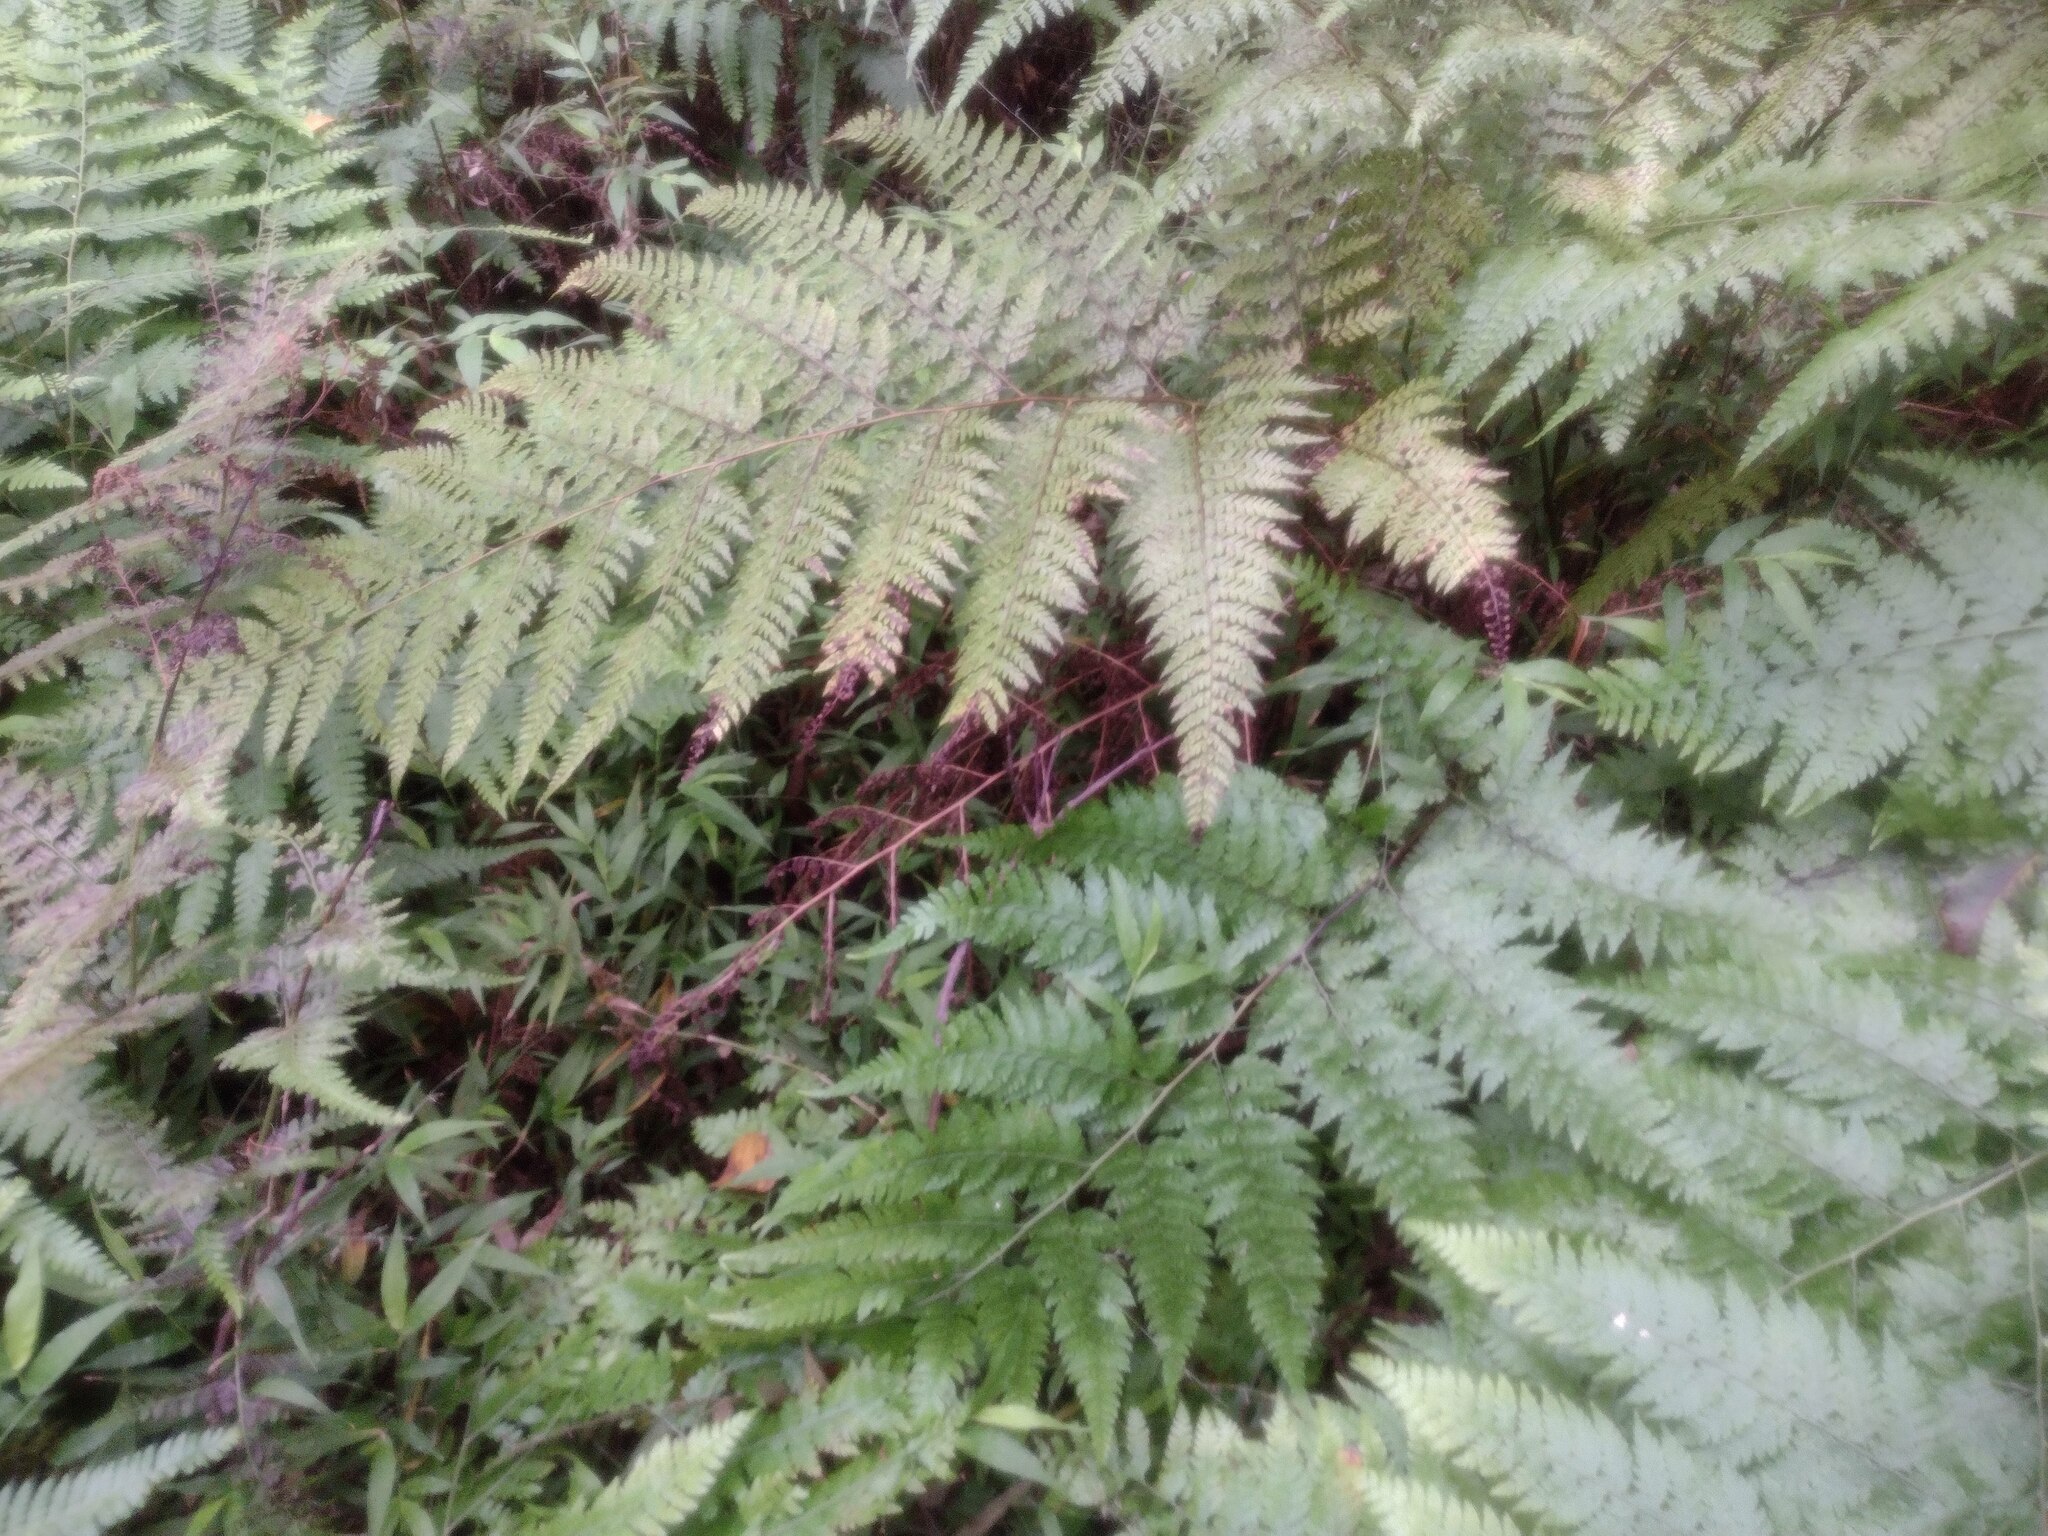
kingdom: Plantae
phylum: Tracheophyta
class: Polypodiopsida
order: Polypodiales
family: Dennstaedtiaceae
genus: Microlepia
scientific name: Microlepia setosa
